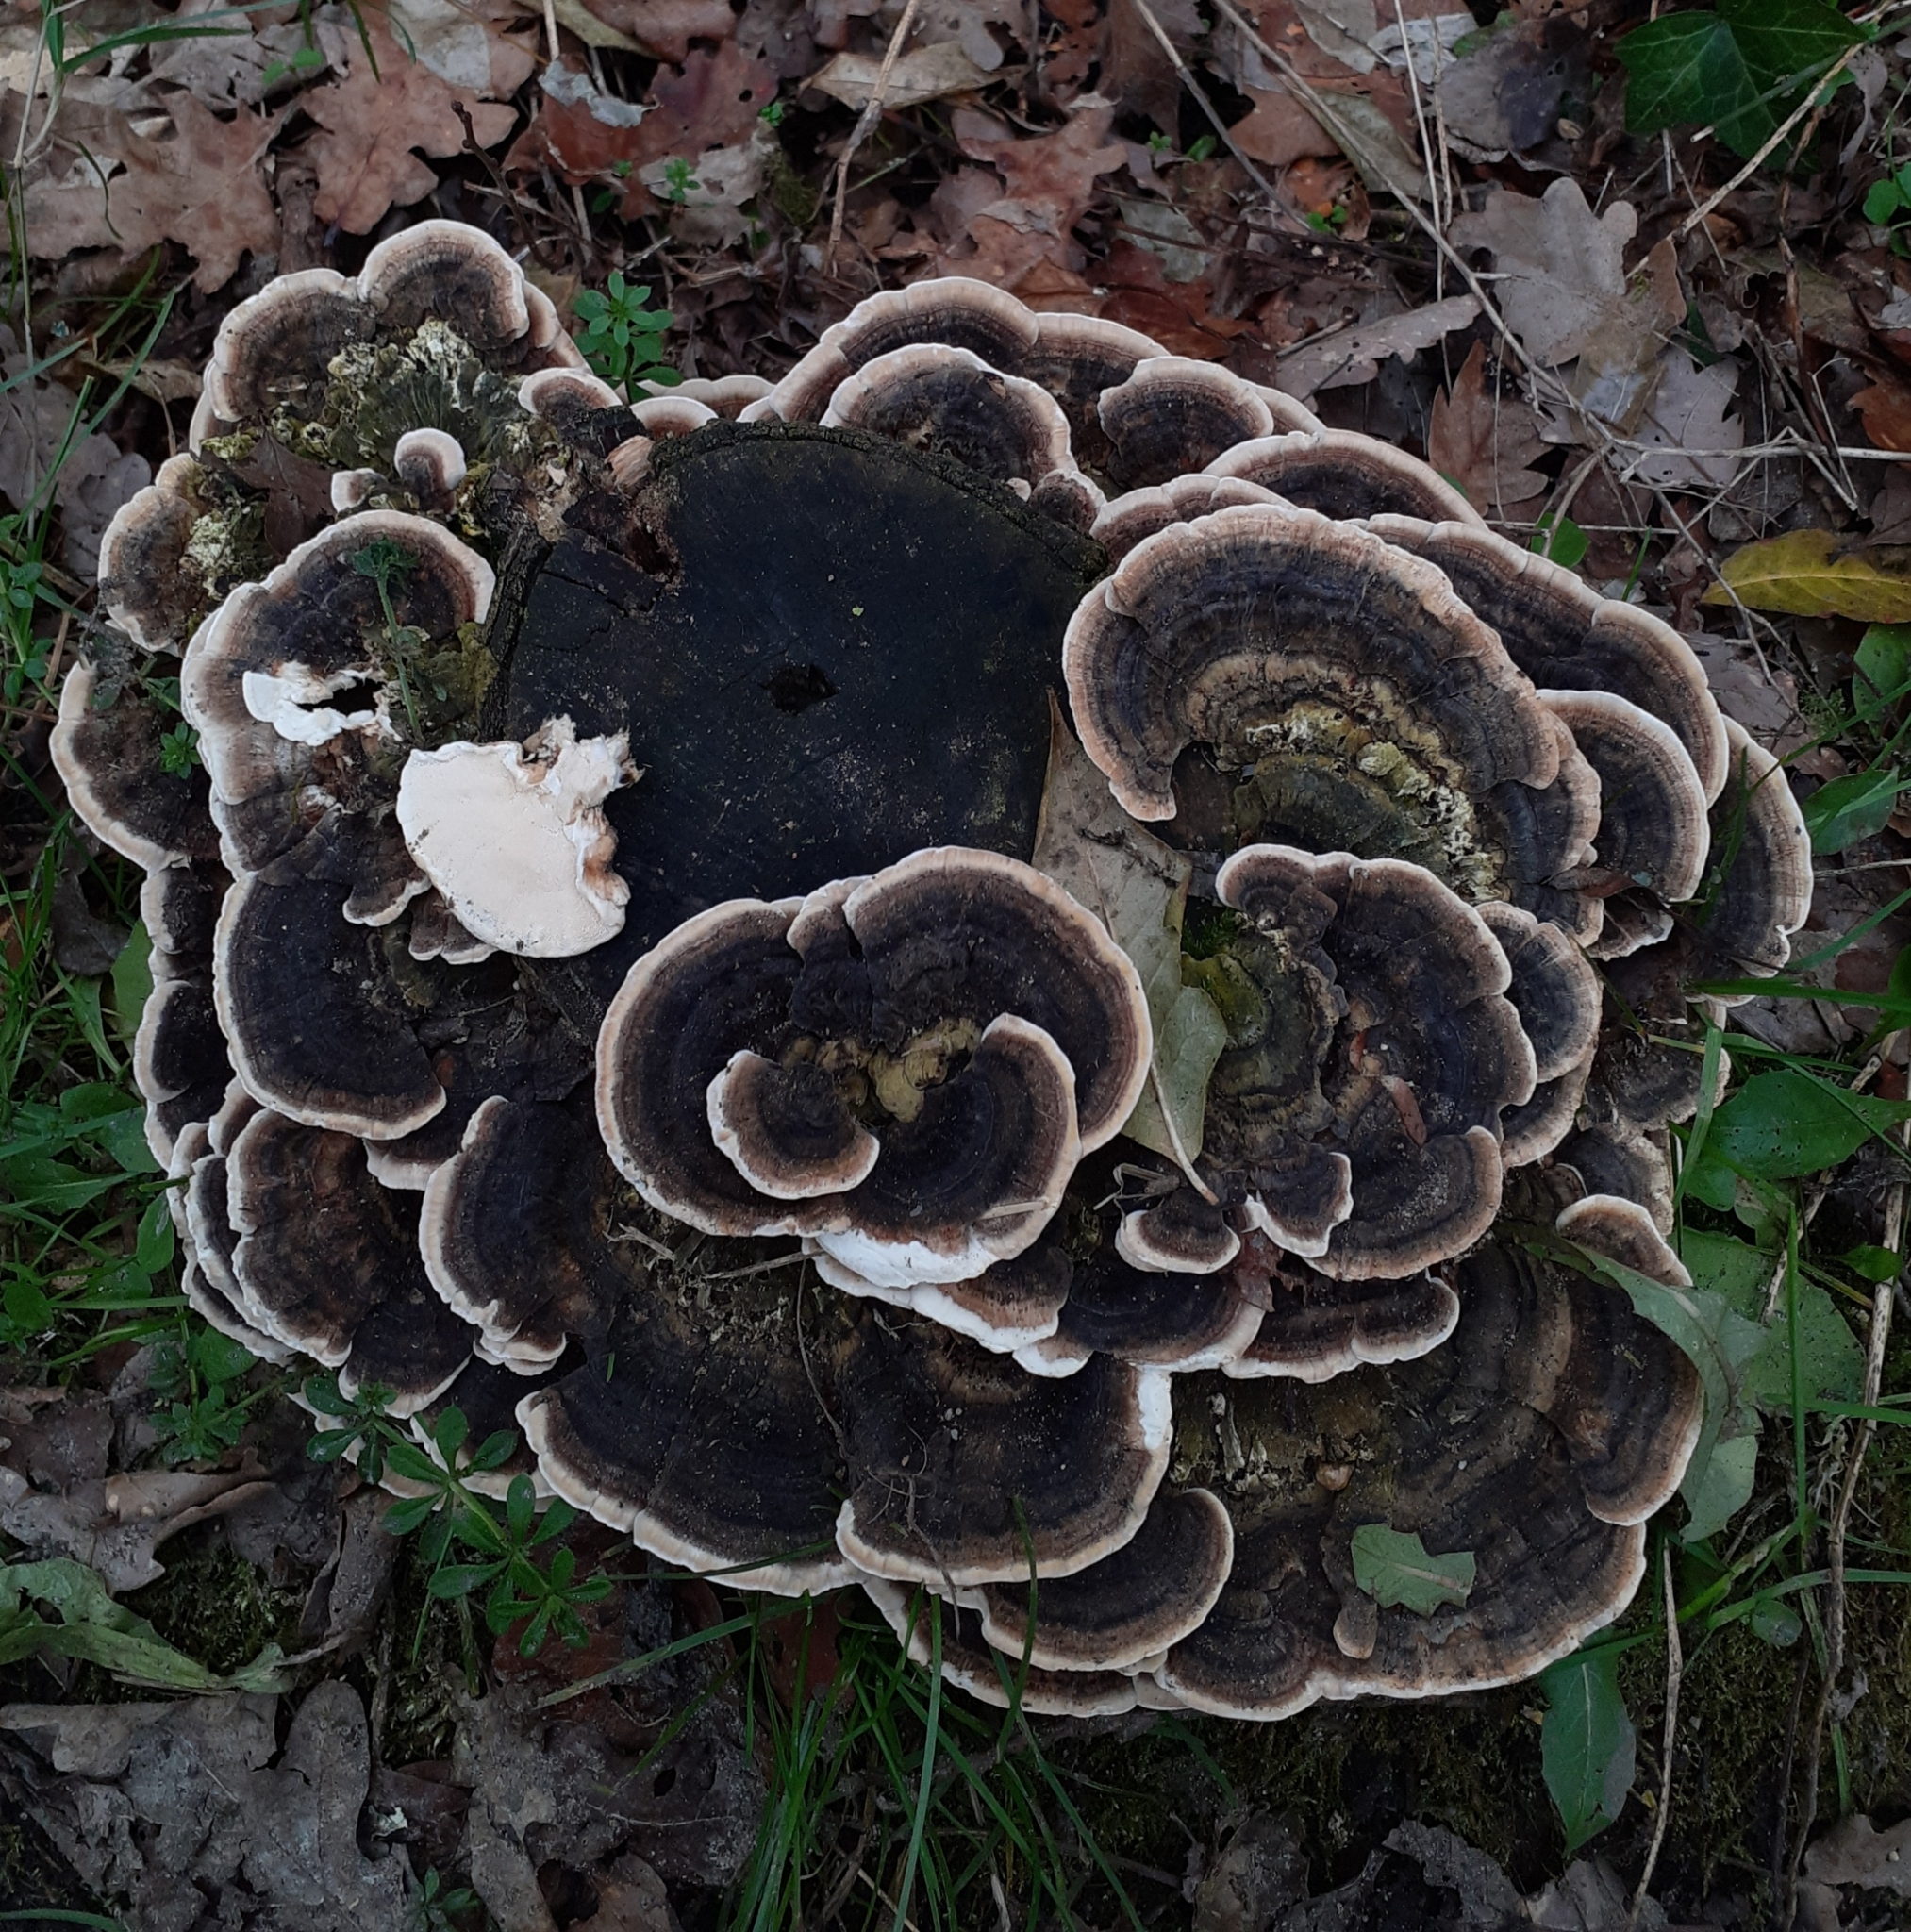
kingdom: Fungi
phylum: Basidiomycota
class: Agaricomycetes
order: Polyporales
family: Polyporaceae
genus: Trametes
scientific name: Trametes versicolor
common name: Turkeytail
